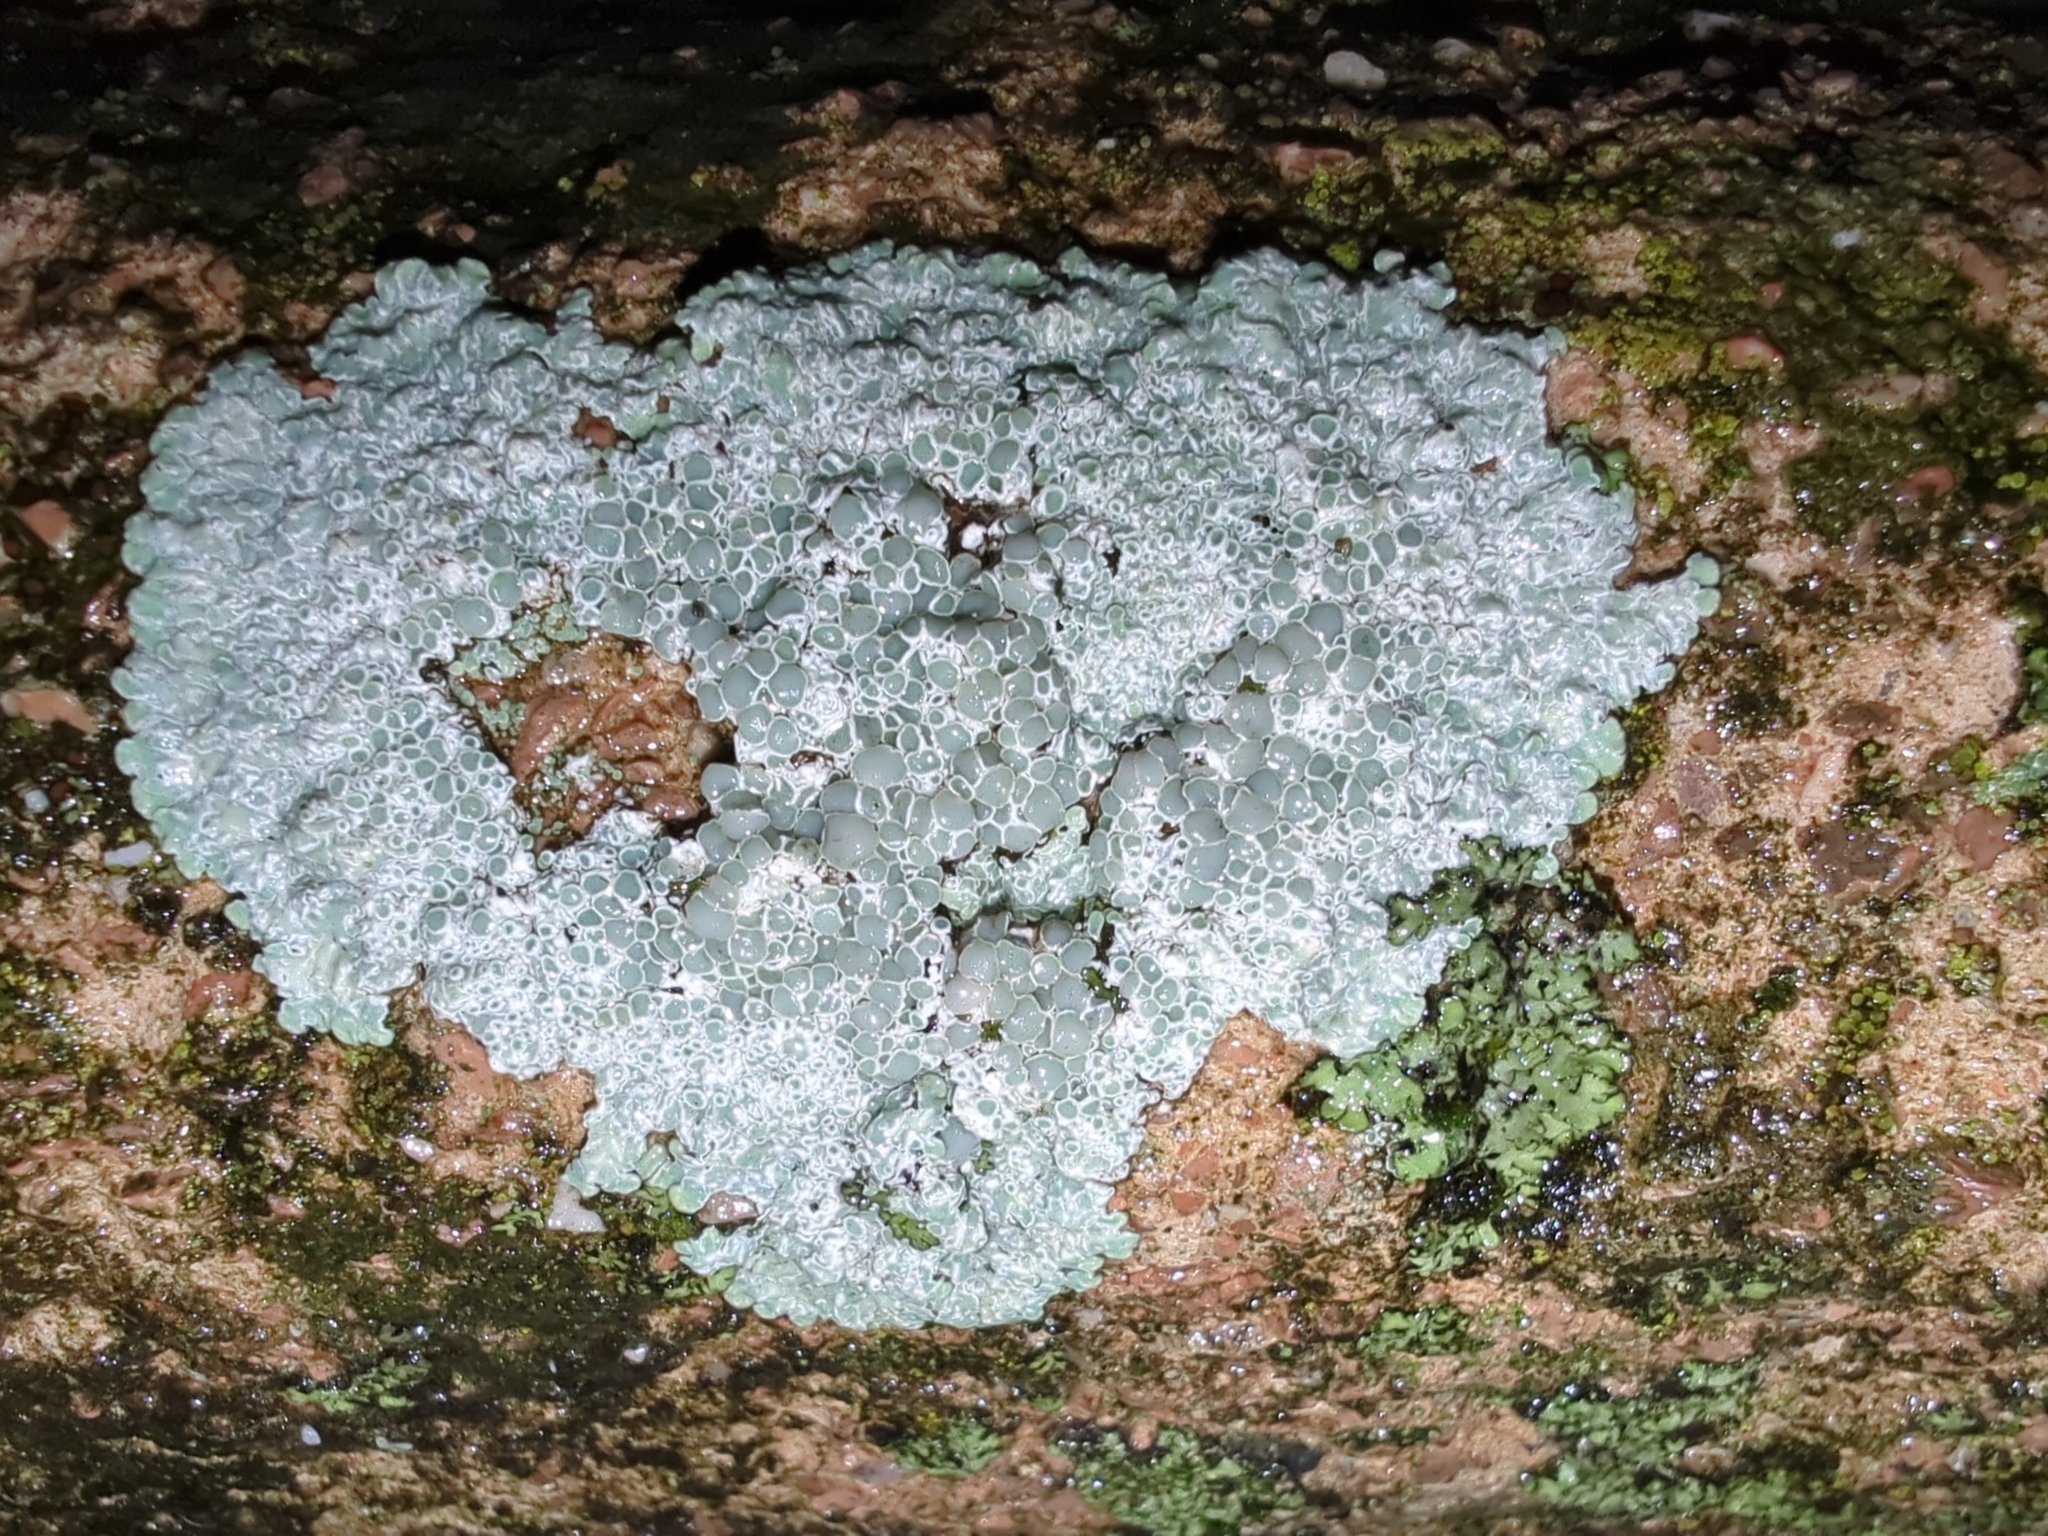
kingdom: Fungi
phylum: Ascomycota
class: Lecanoromycetes
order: Lecanorales
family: Lecanoraceae
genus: Protoparmeliopsis
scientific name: Protoparmeliopsis muralis
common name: Stonewall rim lichen
